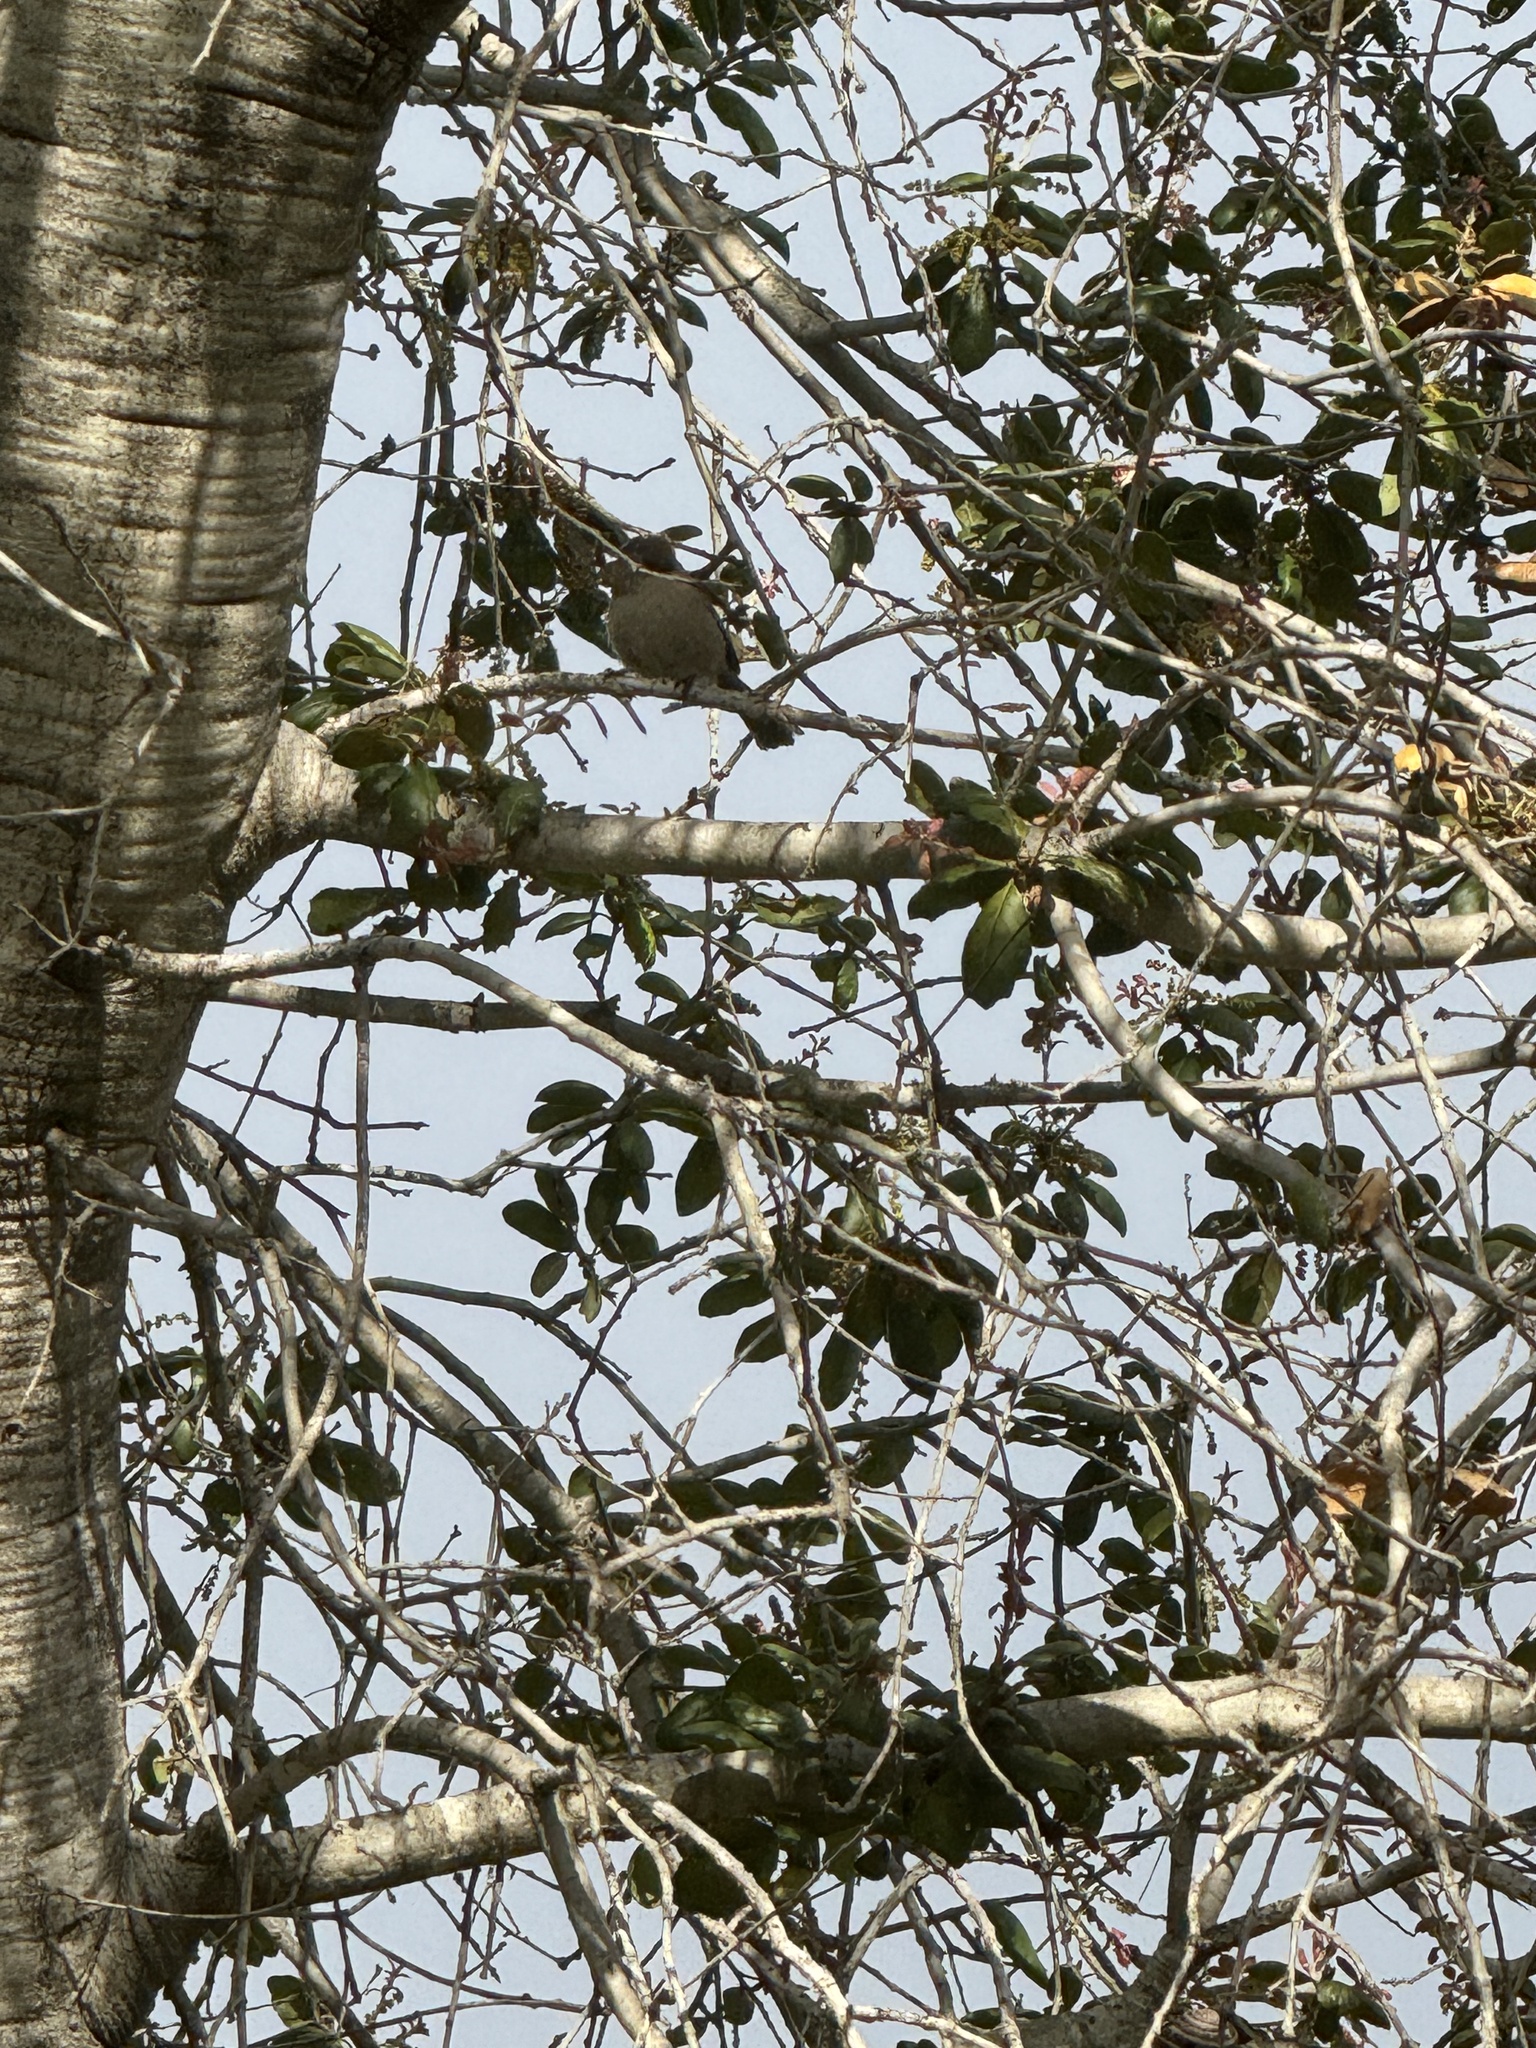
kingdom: Animalia
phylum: Chordata
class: Aves
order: Passeriformes
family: Aegithalidae
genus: Psaltriparus
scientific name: Psaltriparus minimus
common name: American bushtit
